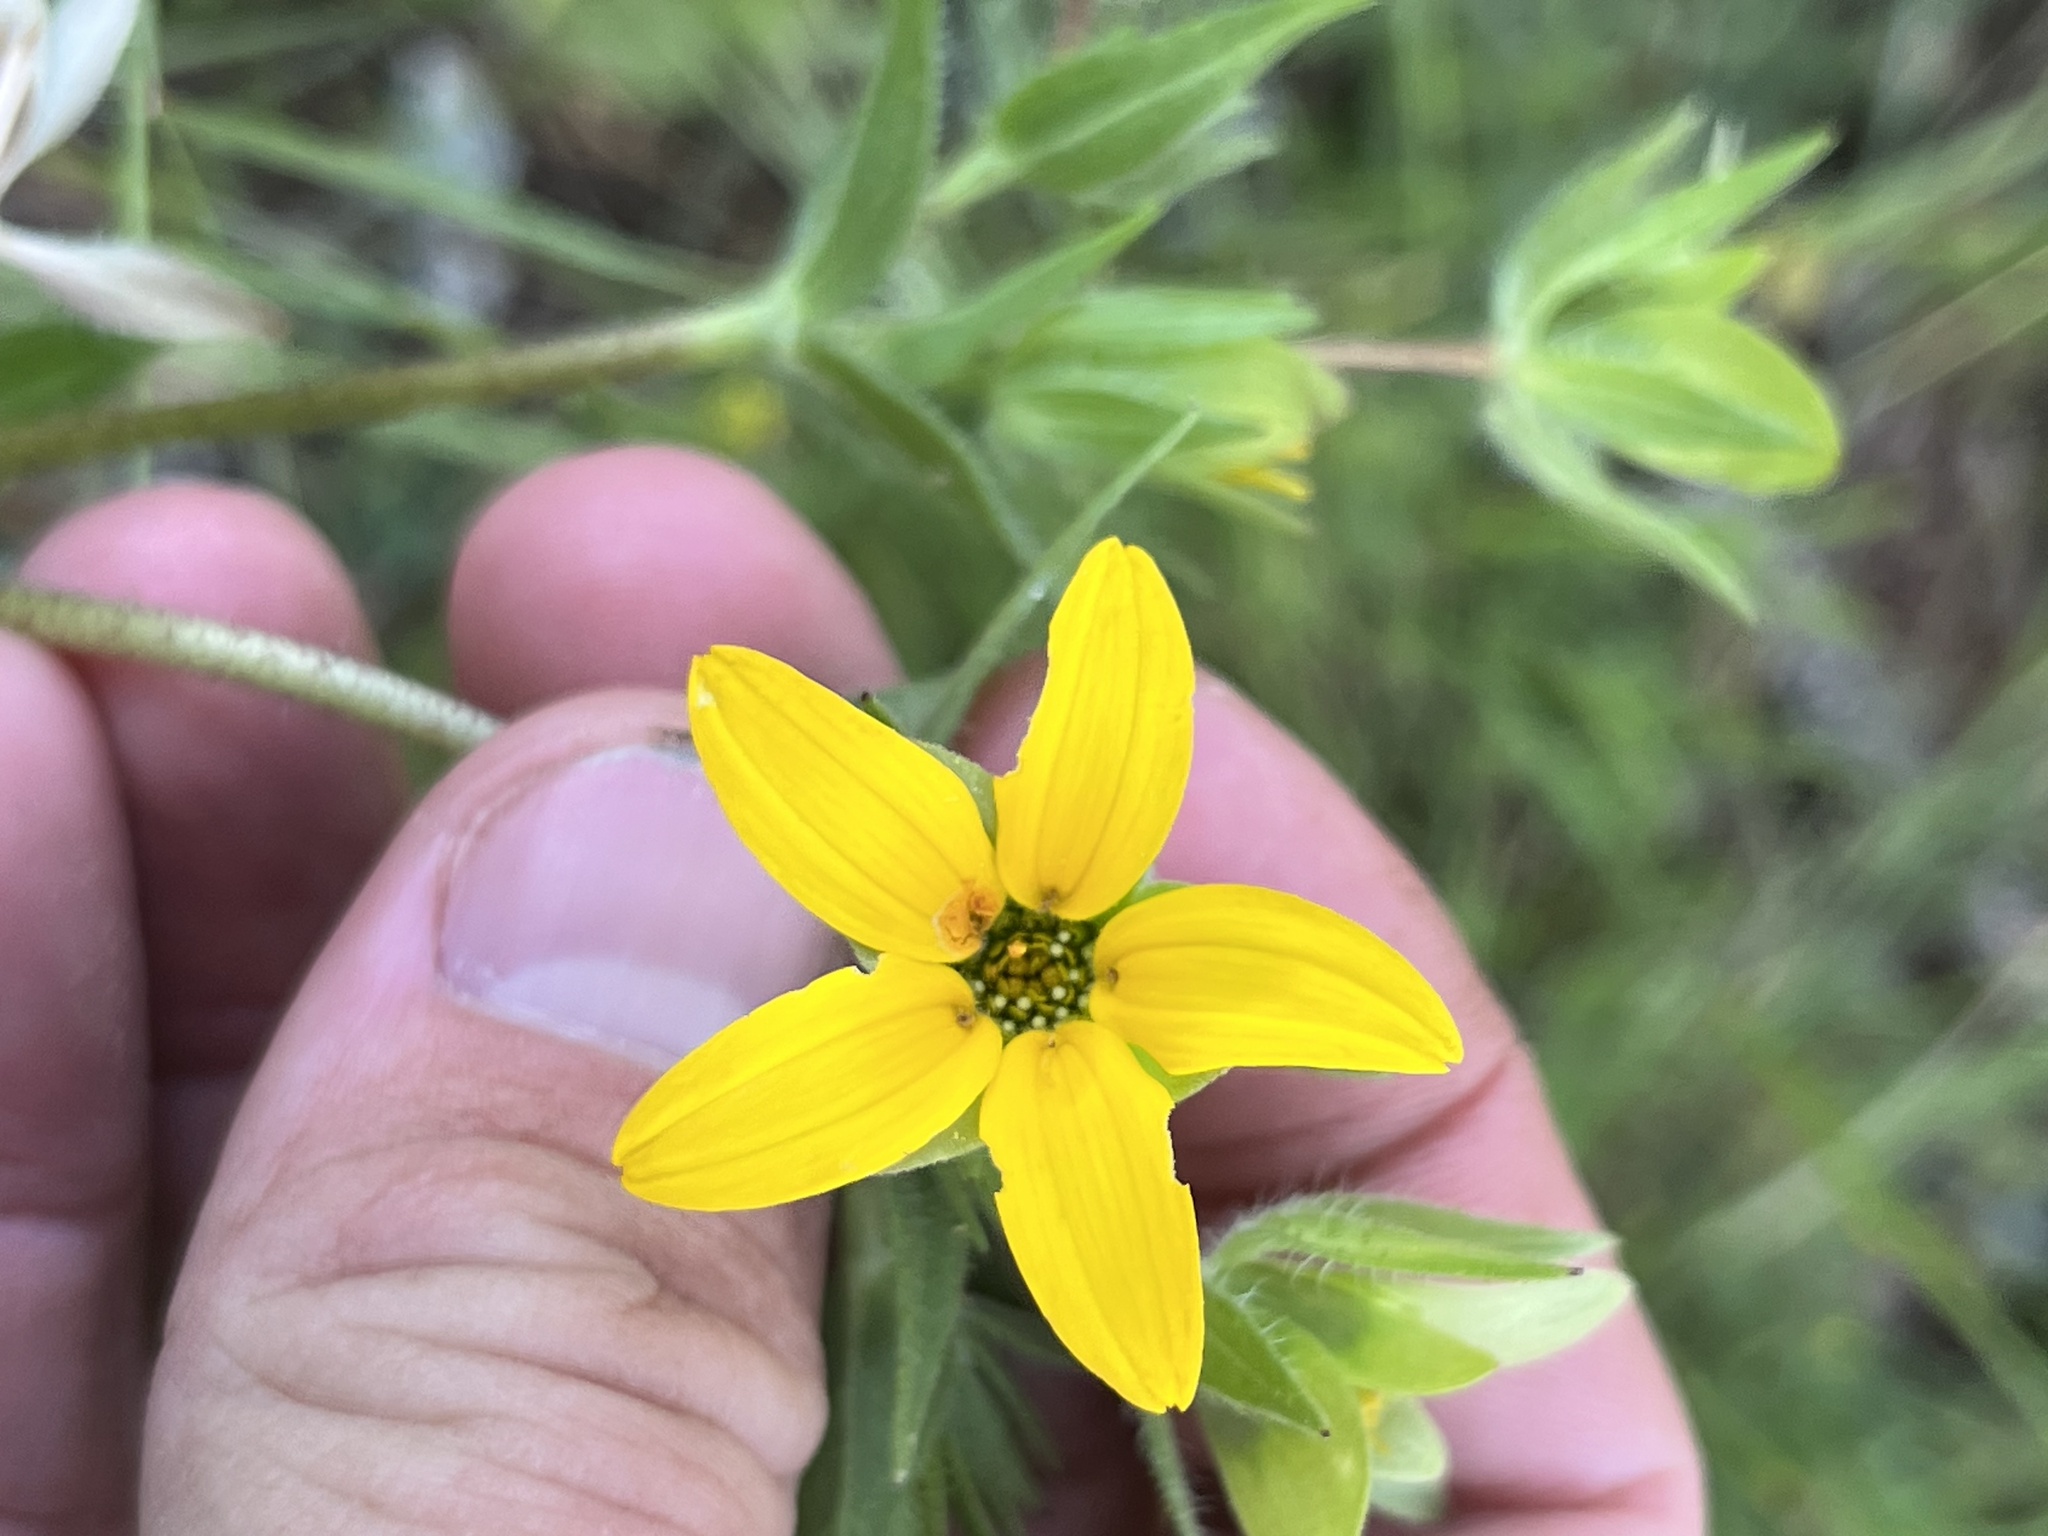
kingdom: Plantae
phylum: Tracheophyta
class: Magnoliopsida
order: Asterales
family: Asteraceae
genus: Lindheimera
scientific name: Lindheimera texana
